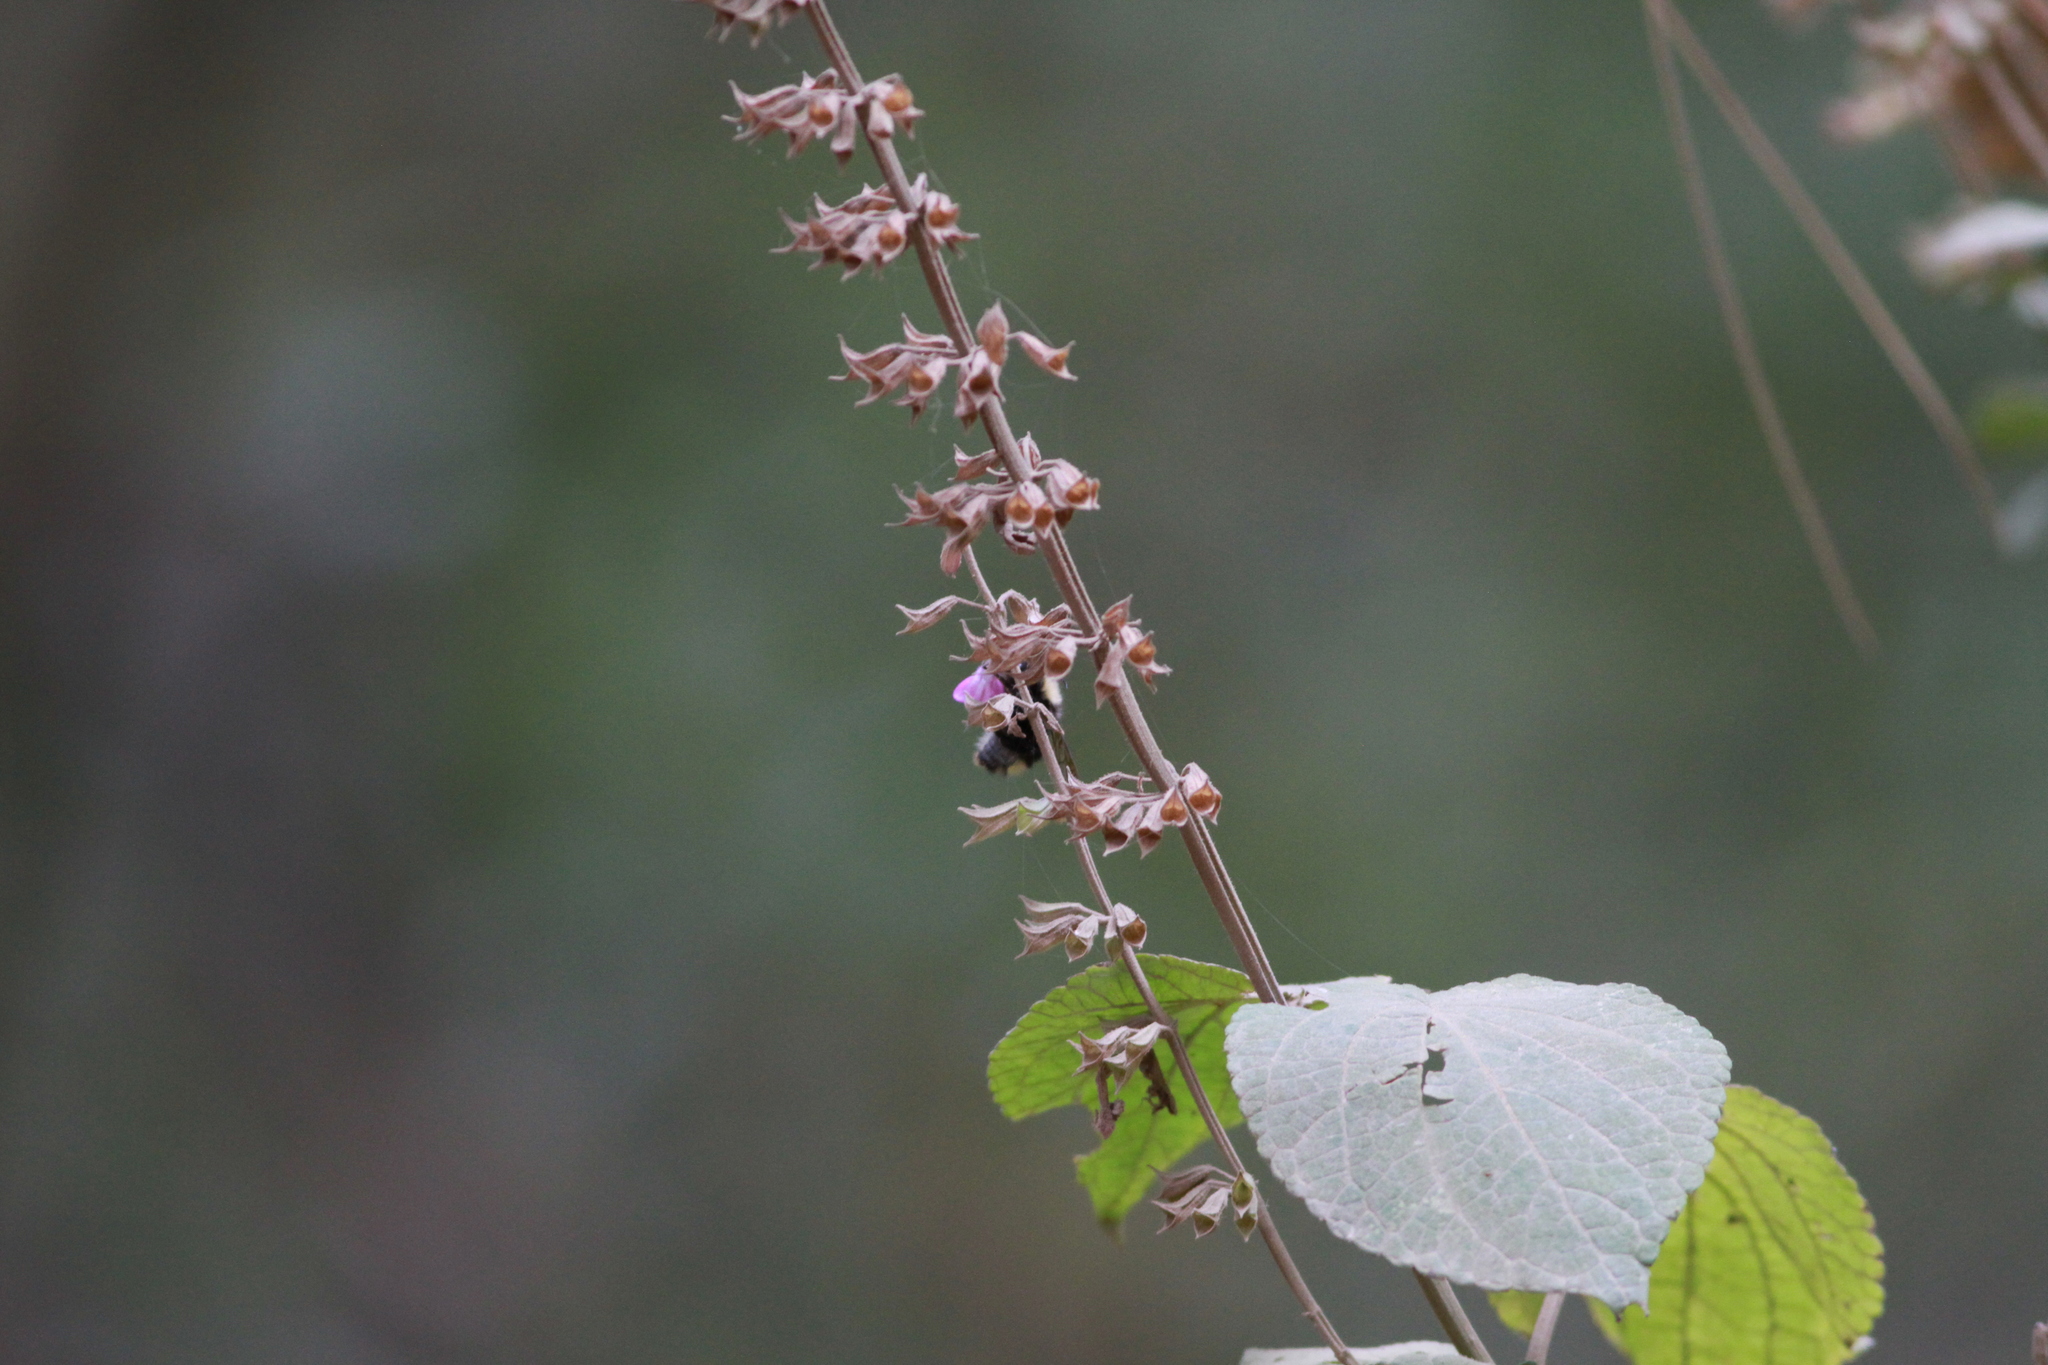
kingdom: Plantae
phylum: Tracheophyta
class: Magnoliopsida
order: Lamiales
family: Lamiaceae
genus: Salvia
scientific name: Salvia carnea
